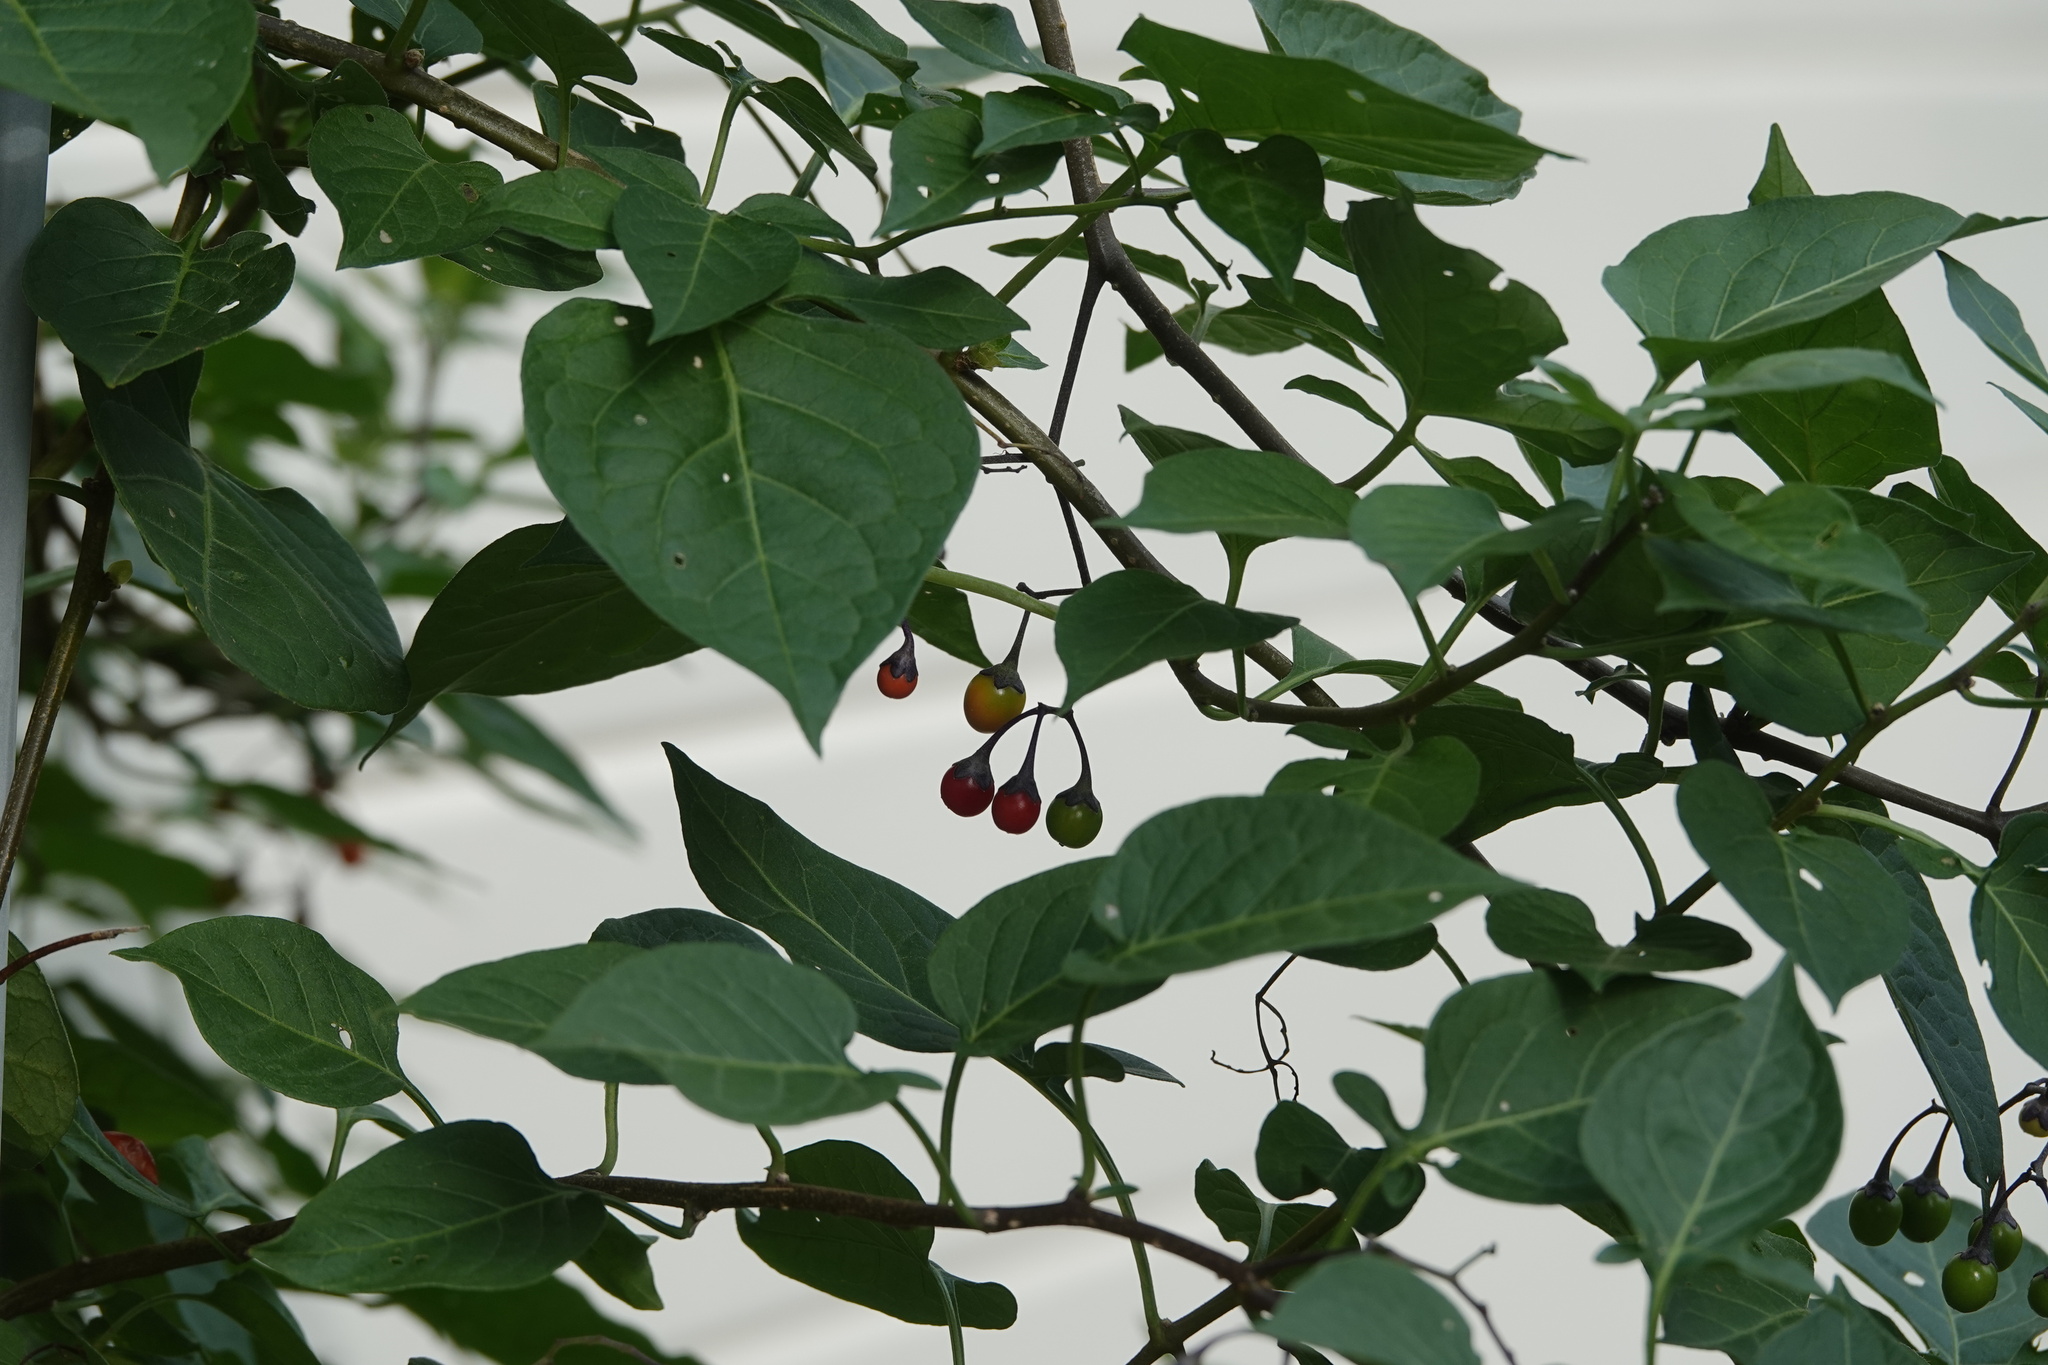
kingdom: Plantae
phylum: Tracheophyta
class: Magnoliopsida
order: Solanales
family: Solanaceae
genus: Solanum
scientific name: Solanum dulcamara
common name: Climbing nightshade
